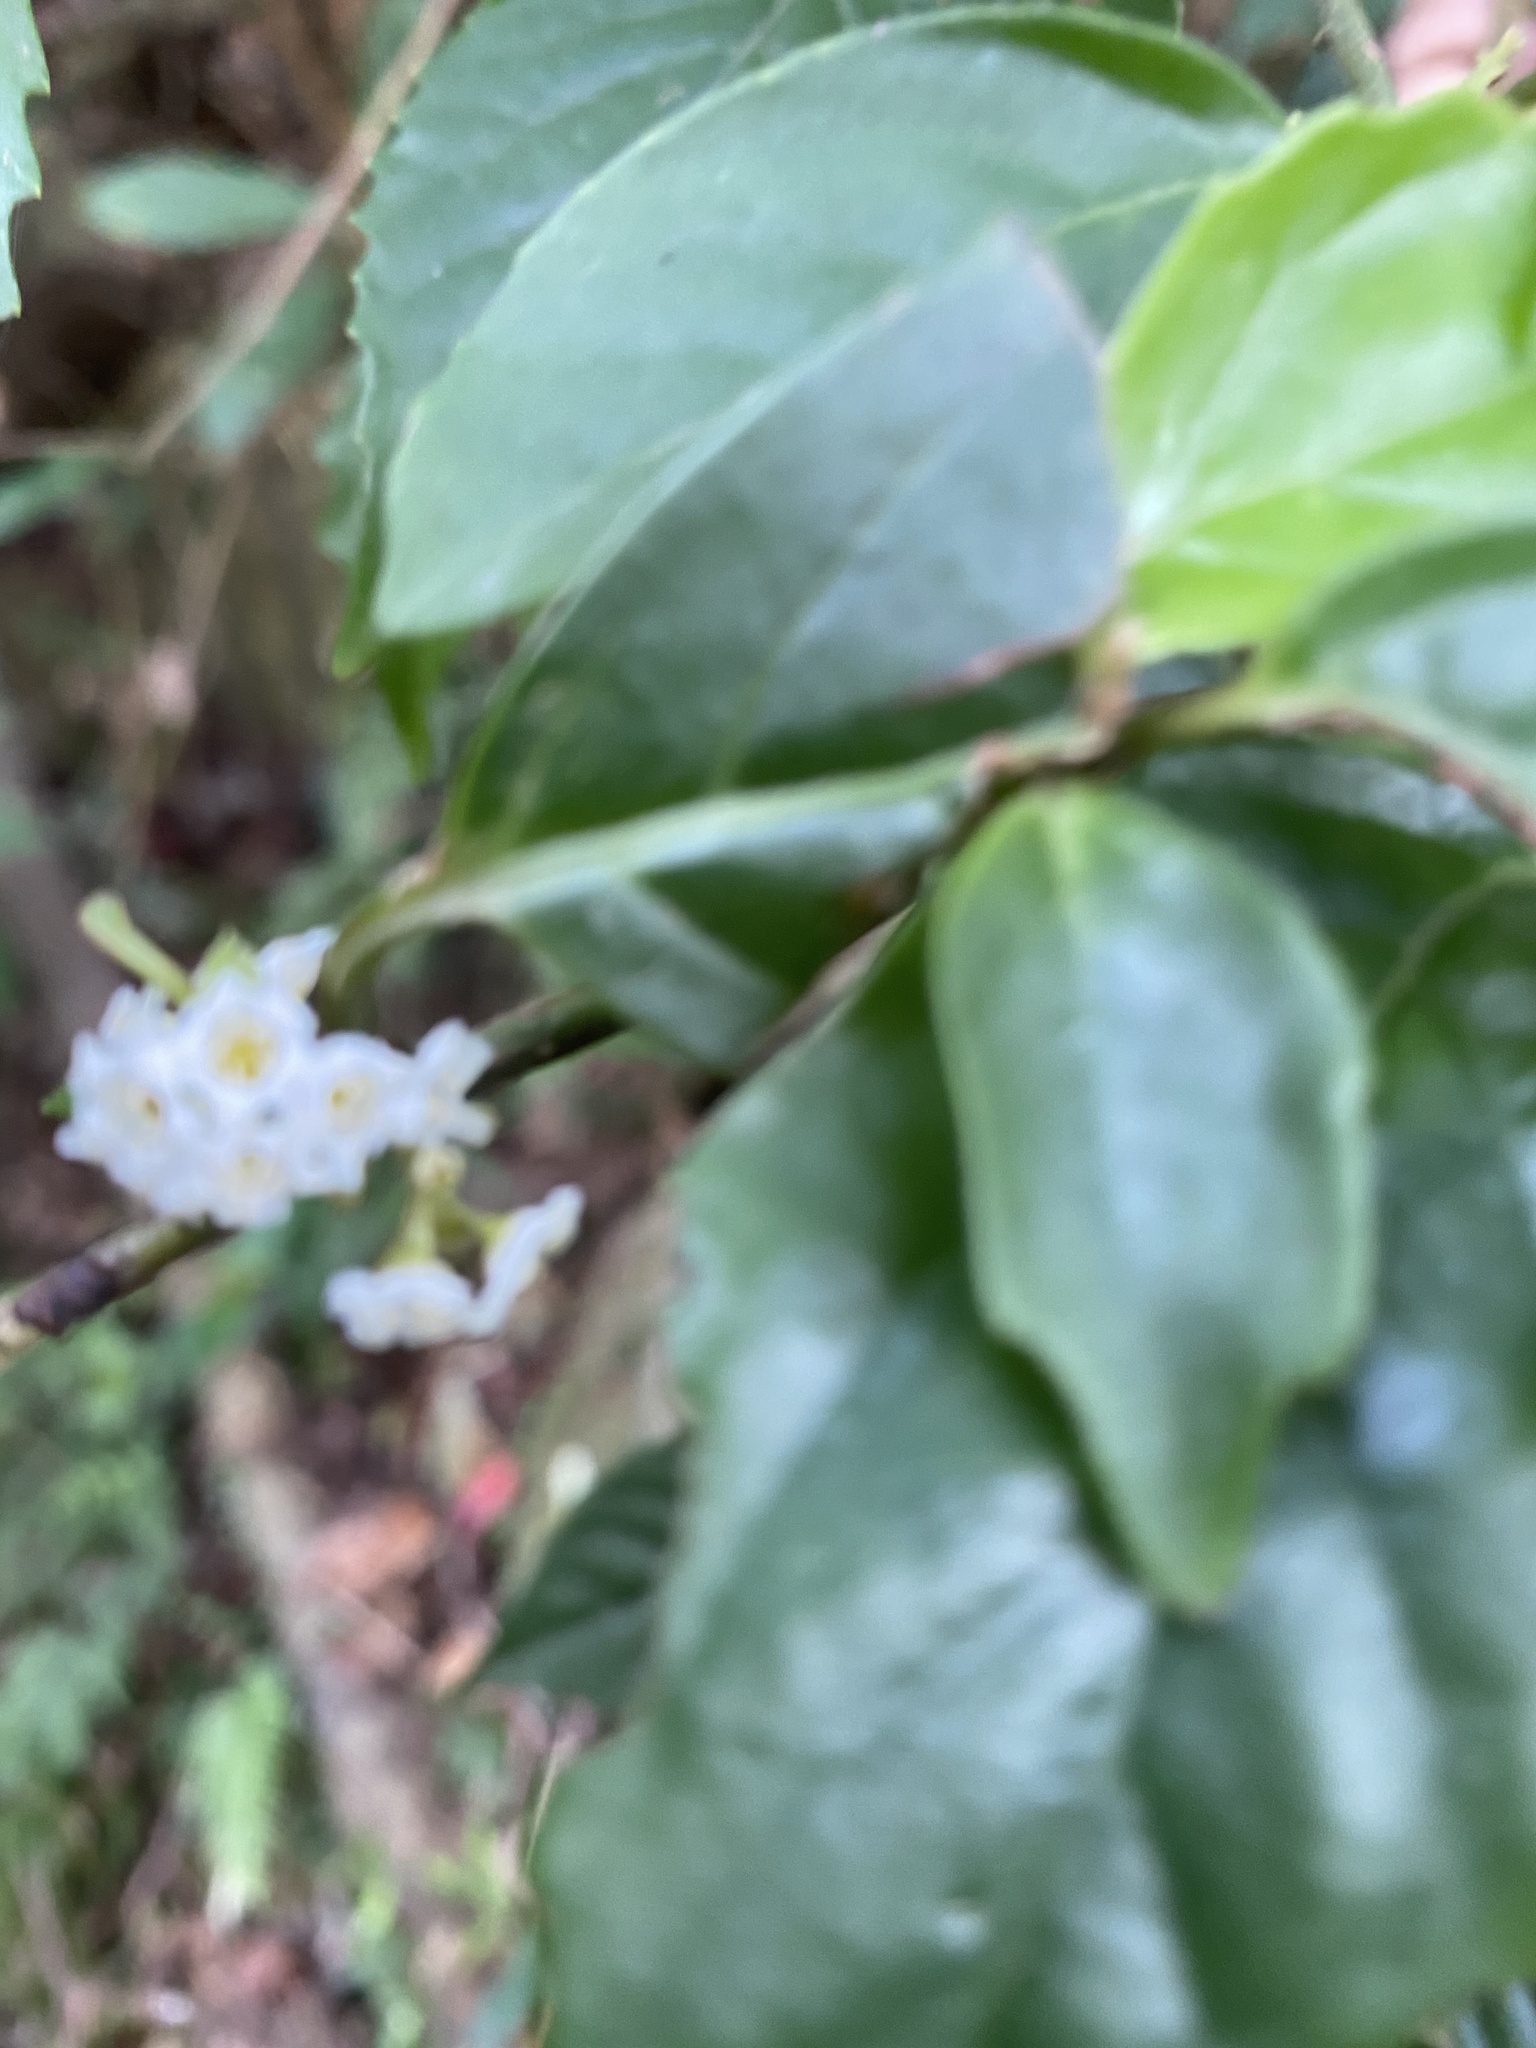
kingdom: Plantae
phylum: Tracheophyta
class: Magnoliopsida
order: Ericales
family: Primulaceae
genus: Maesa
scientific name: Maesa perlaria
